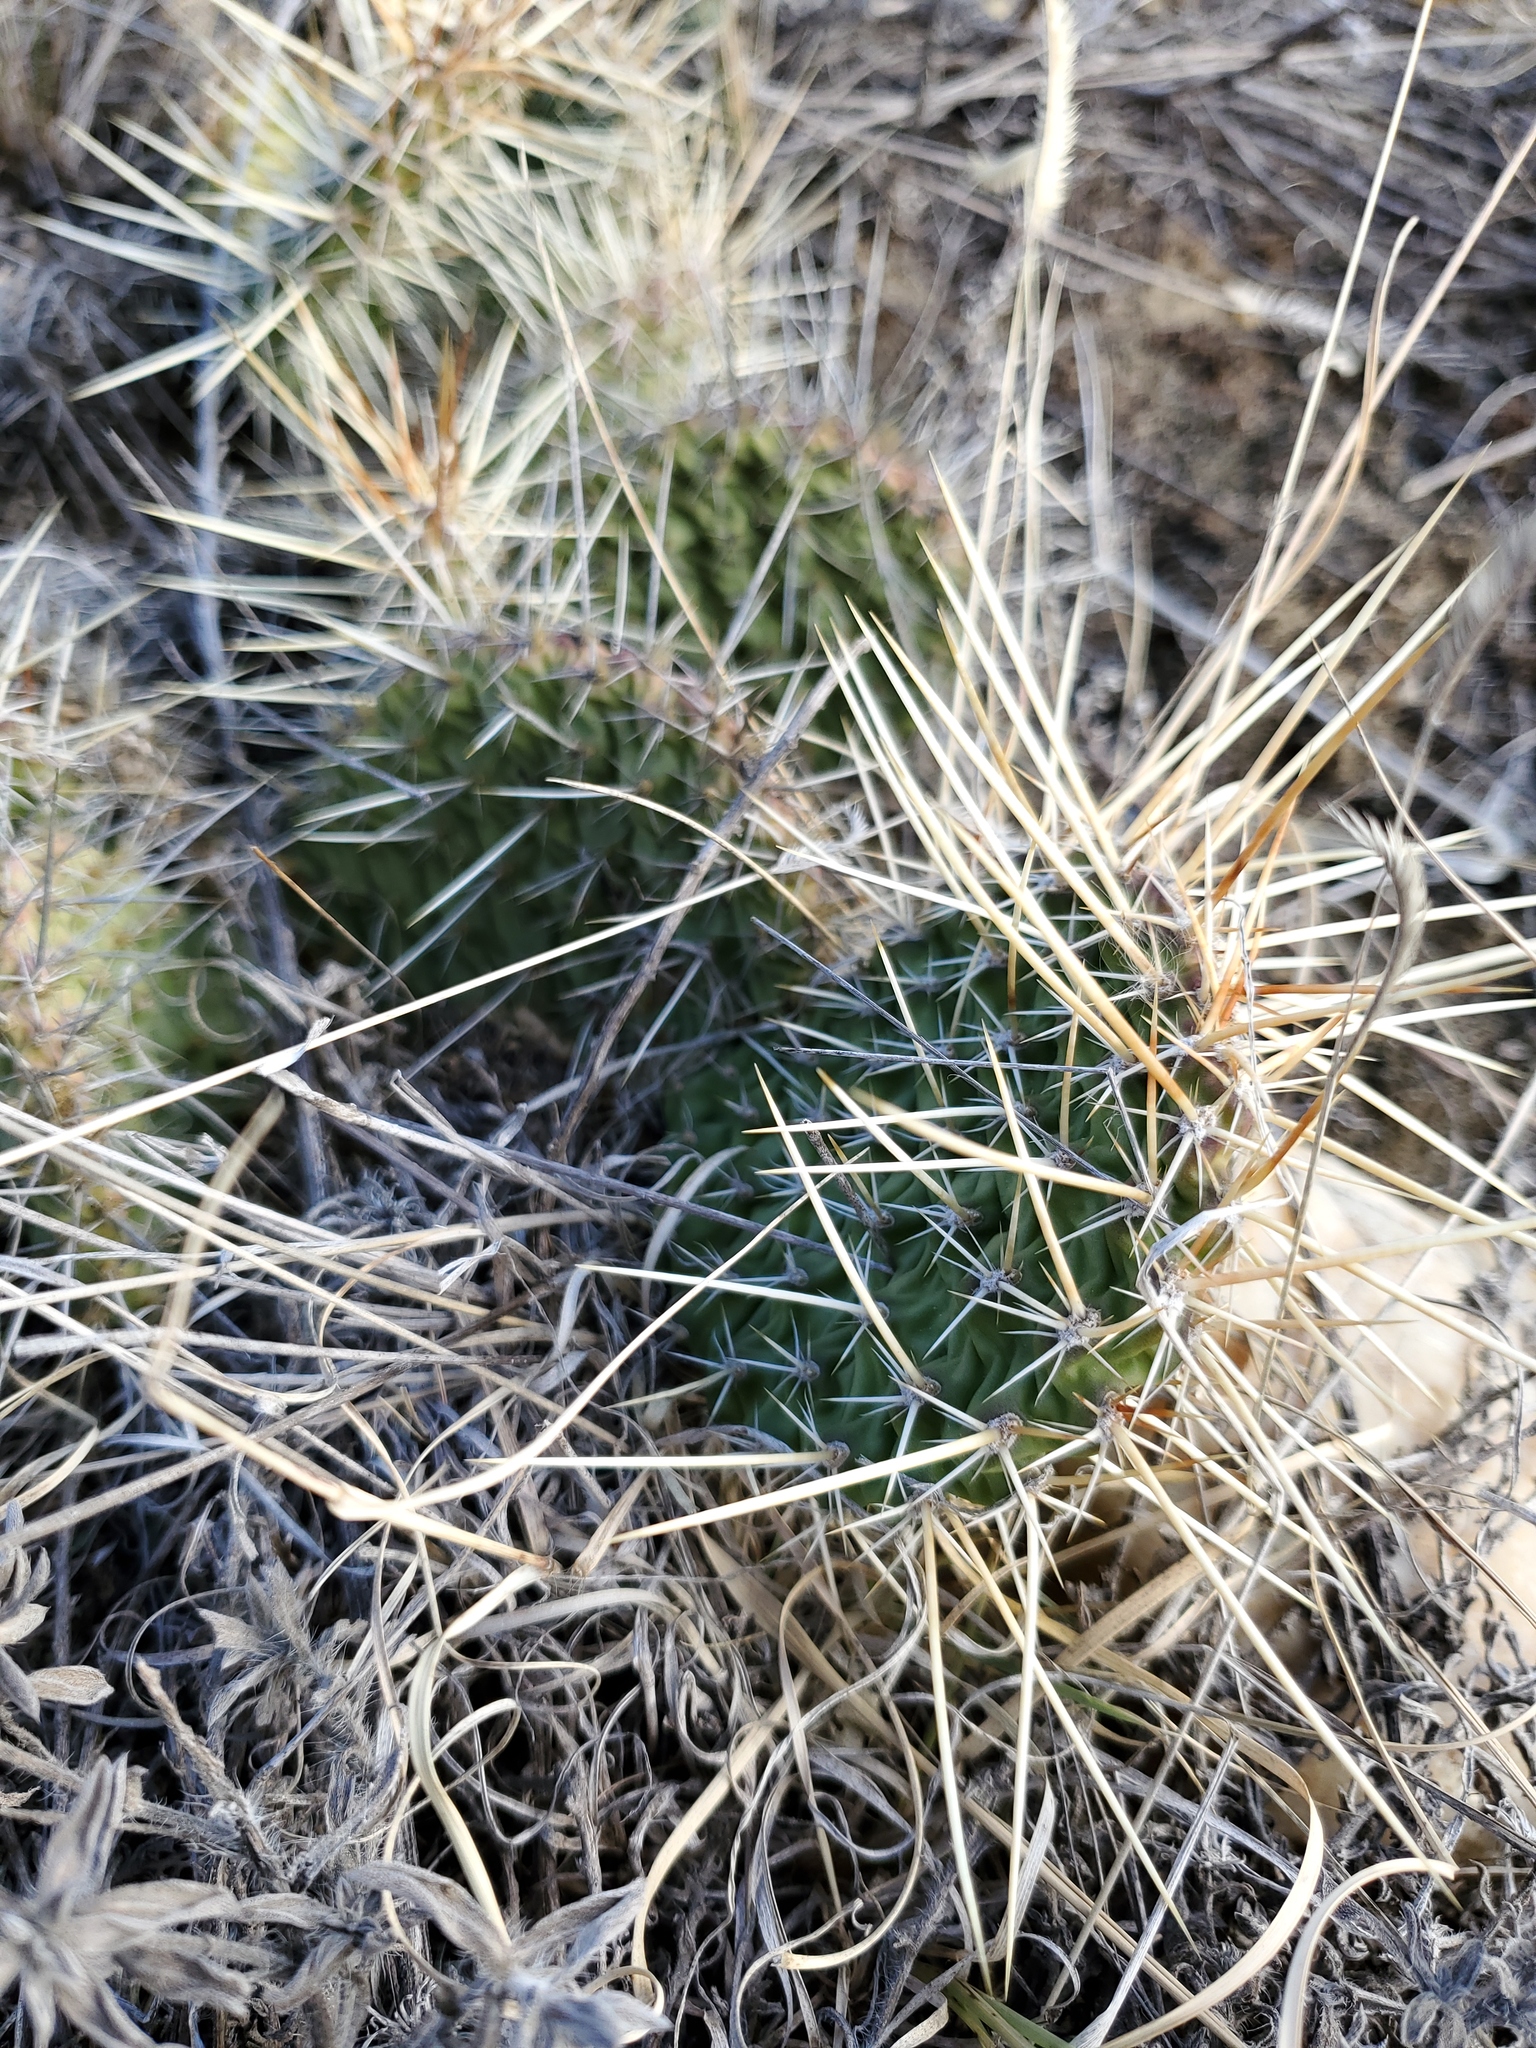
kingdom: Plantae
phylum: Tracheophyta
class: Magnoliopsida
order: Caryophyllales
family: Cactaceae
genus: Opuntia
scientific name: Opuntia polyacantha
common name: Plains prickly-pear
